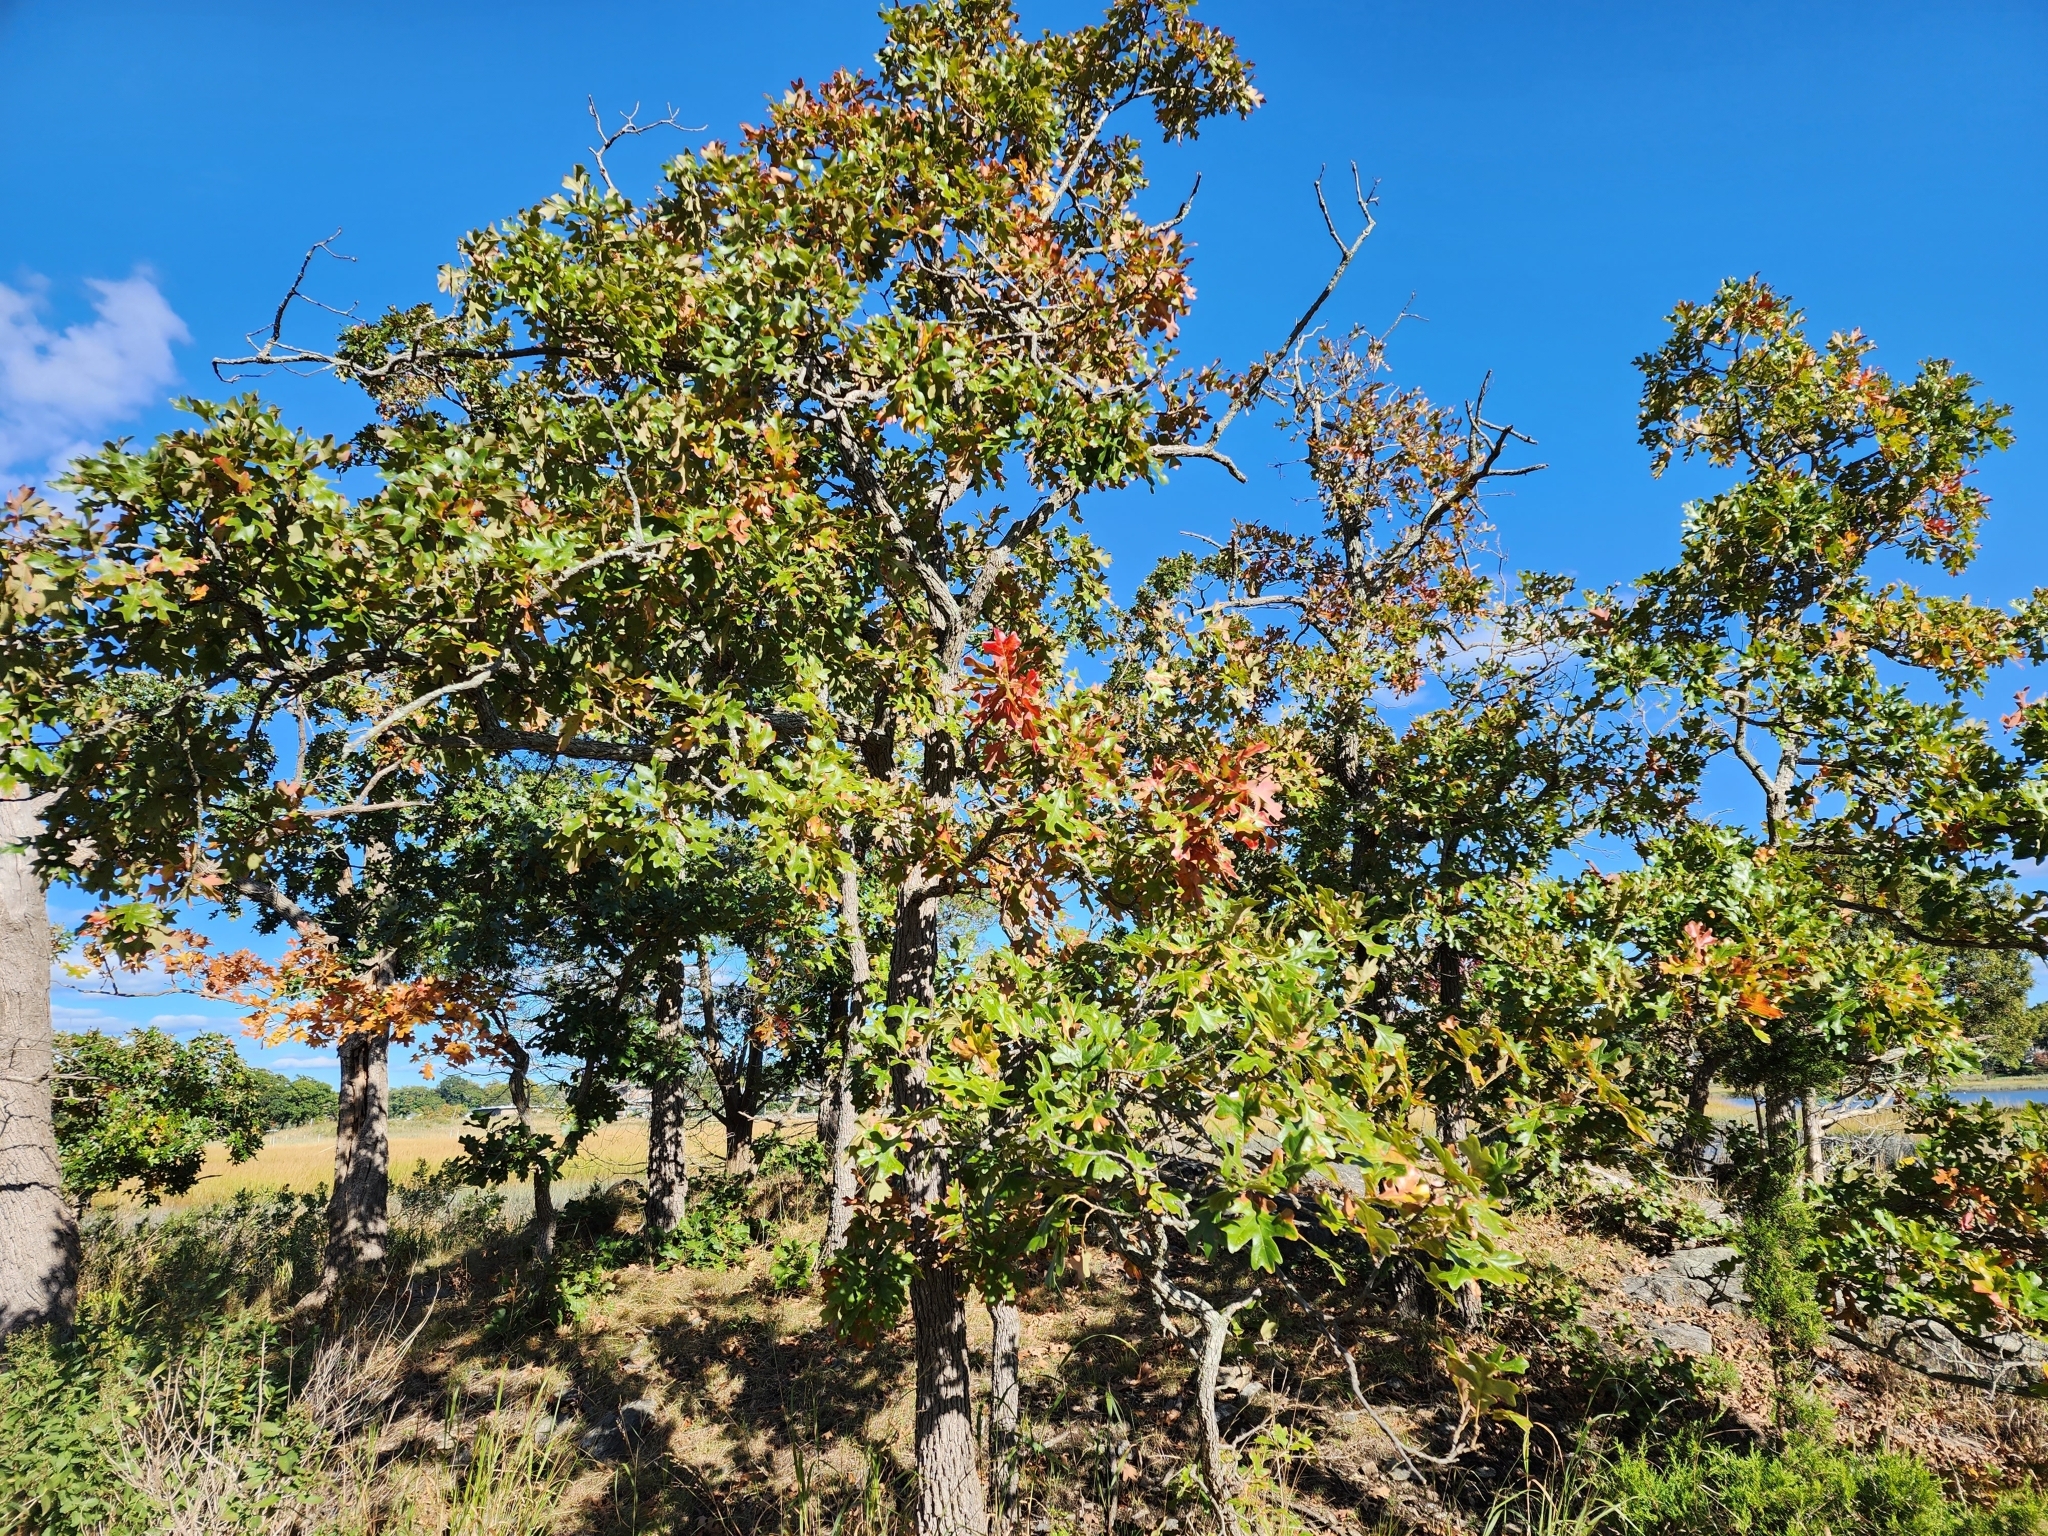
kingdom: Plantae
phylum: Tracheophyta
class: Magnoliopsida
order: Fagales
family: Fagaceae
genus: Quercus
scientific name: Quercus stellata
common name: Post oak
